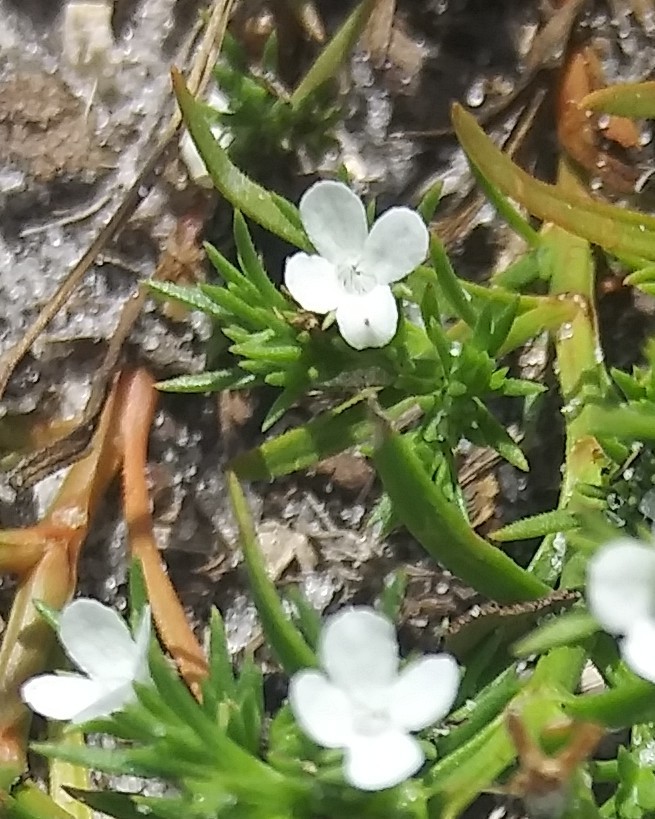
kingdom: Plantae
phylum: Tracheophyta
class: Magnoliopsida
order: Lamiales
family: Tetrachondraceae
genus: Polypremum
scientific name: Polypremum procumbens
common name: Juniper-leaf
